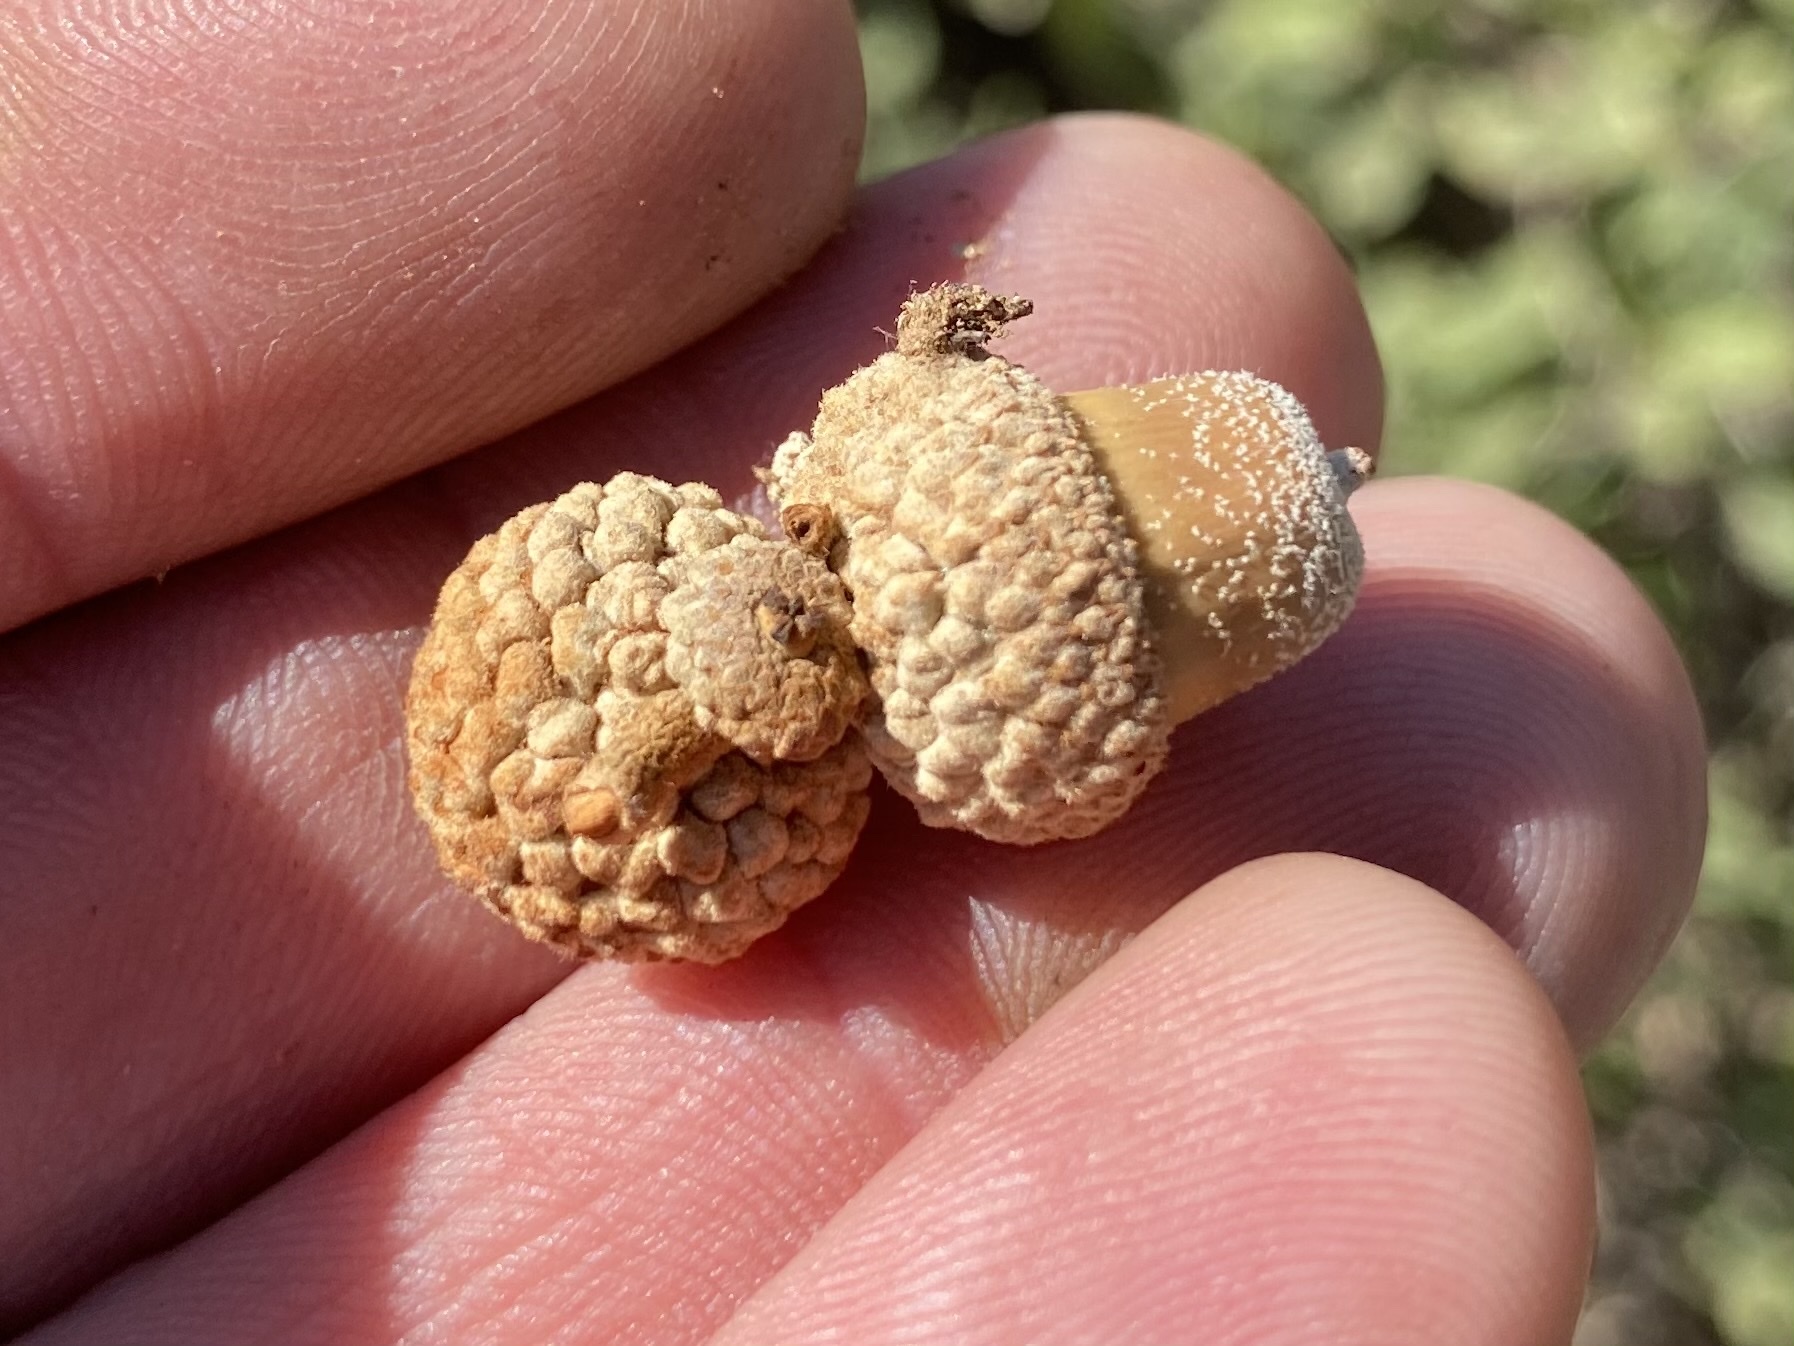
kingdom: Plantae
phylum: Tracheophyta
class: Magnoliopsida
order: Fagales
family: Fagaceae
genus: Quercus
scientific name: Quercus havardii
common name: Shinnery oak
